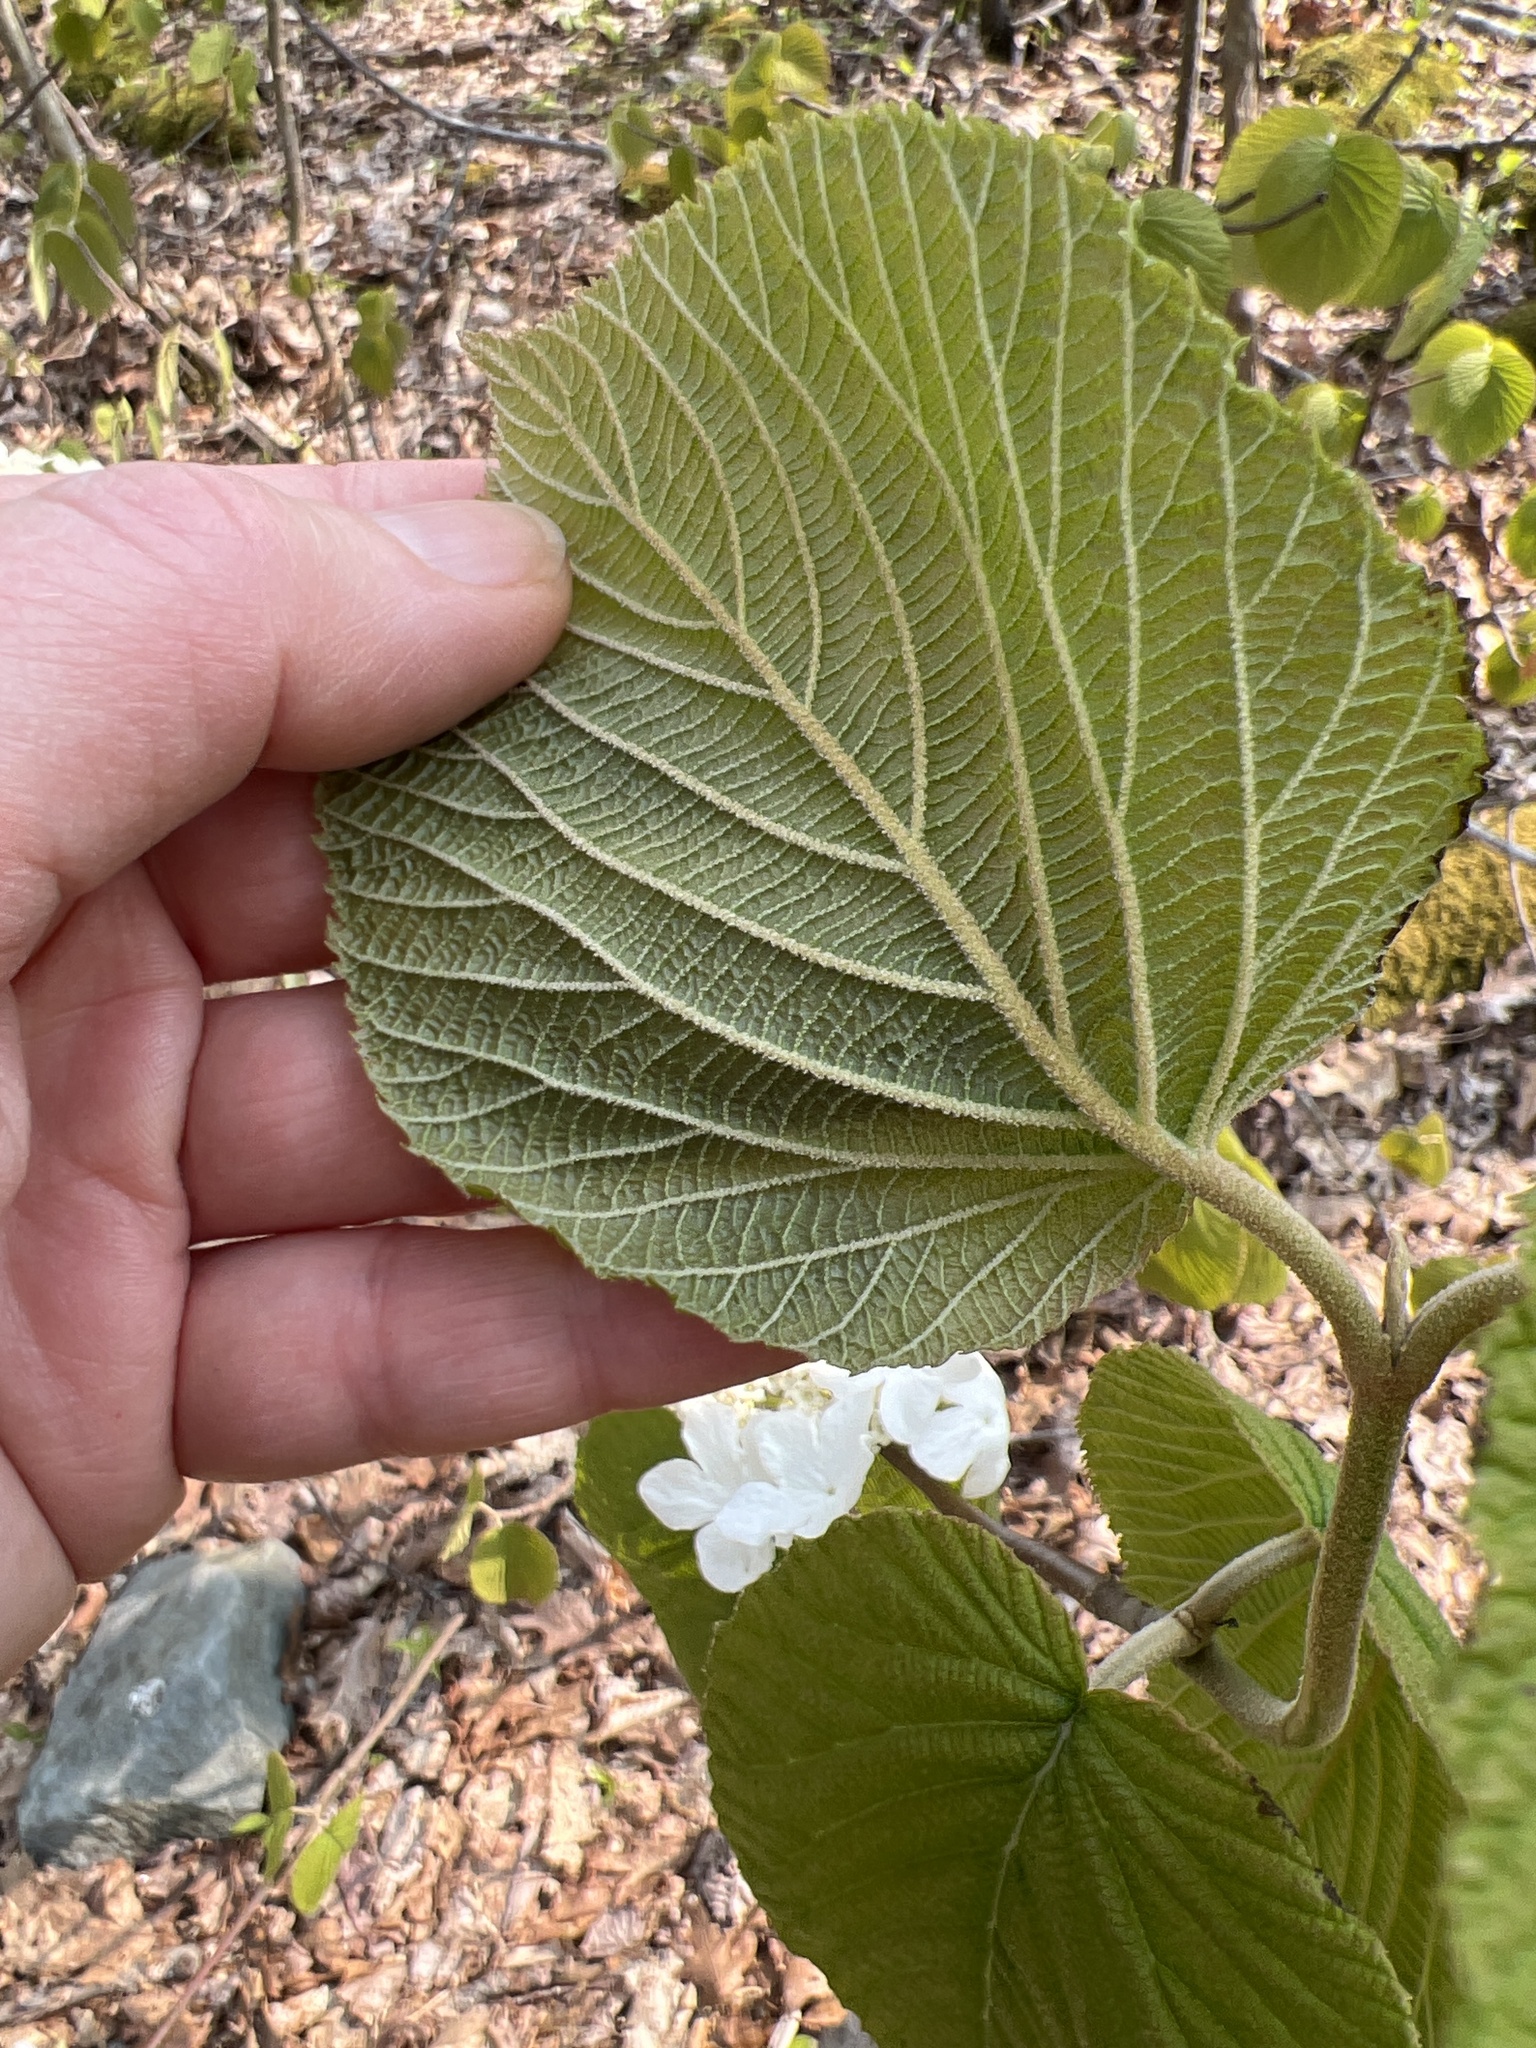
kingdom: Plantae
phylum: Tracheophyta
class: Magnoliopsida
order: Dipsacales
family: Viburnaceae
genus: Viburnum
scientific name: Viburnum lantanoides
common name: Hobblebush
